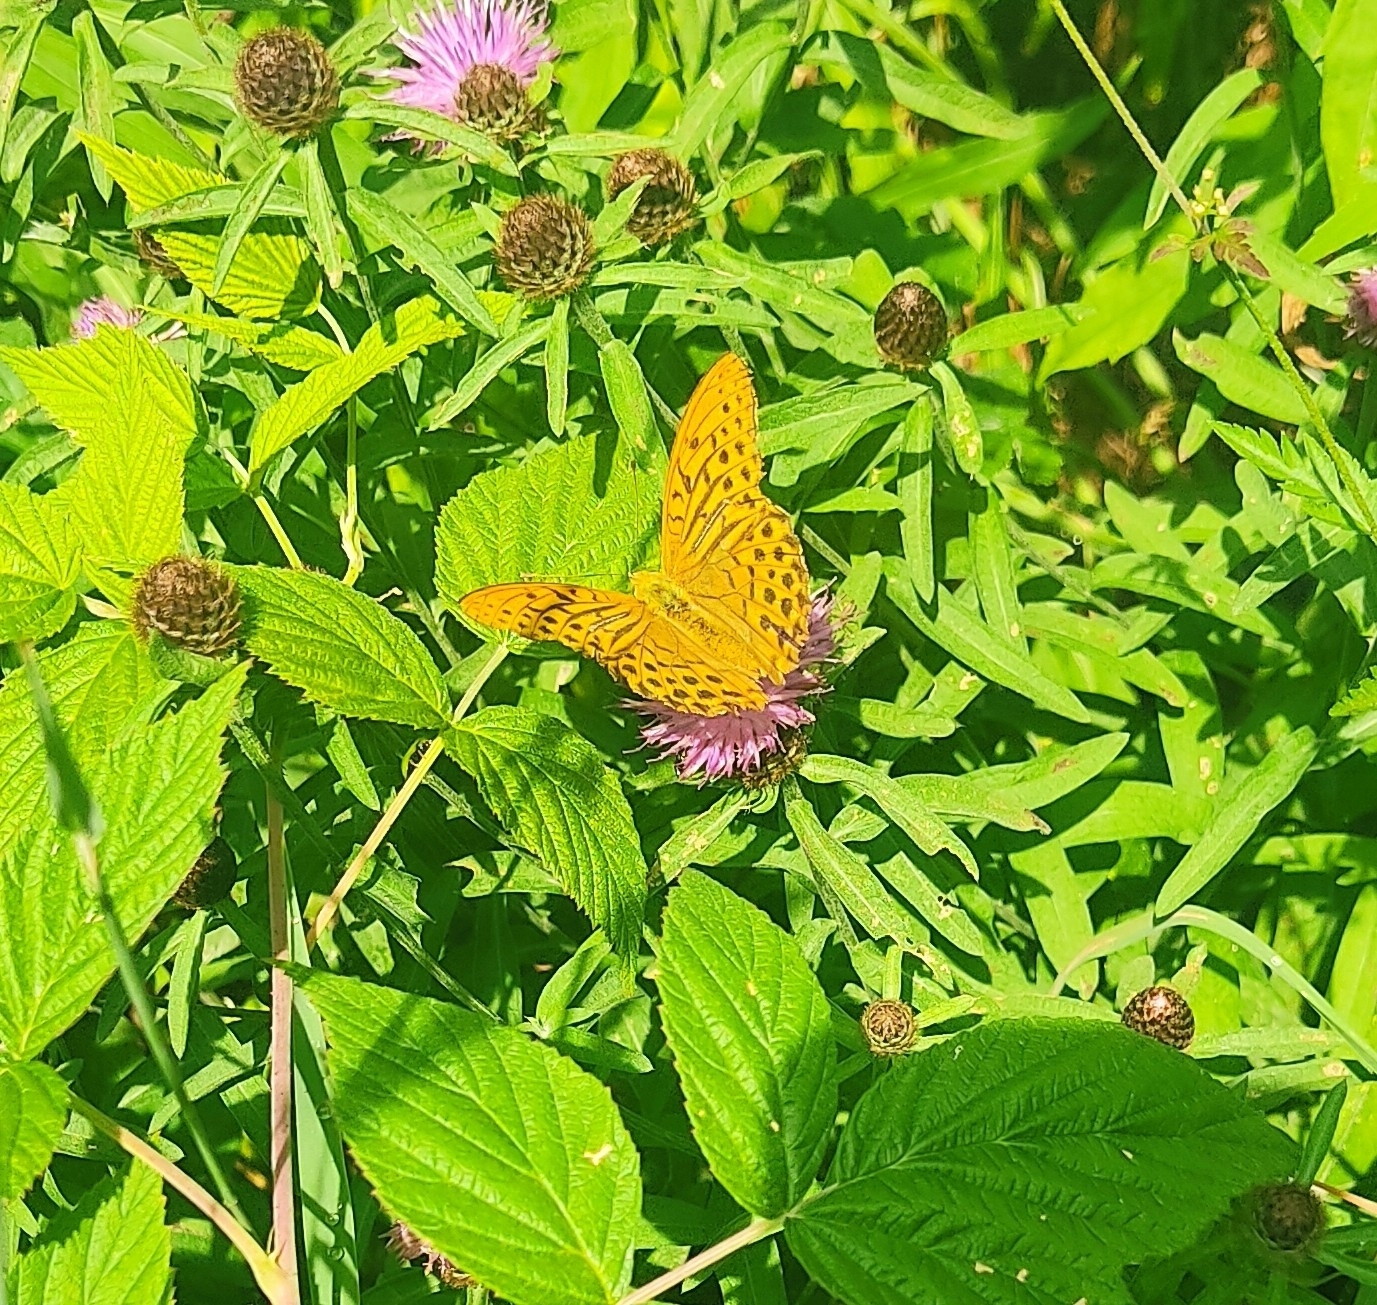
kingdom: Animalia
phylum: Arthropoda
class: Insecta
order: Lepidoptera
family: Nymphalidae
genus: Argynnis
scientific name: Argynnis paphia
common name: Silver-washed fritillary
